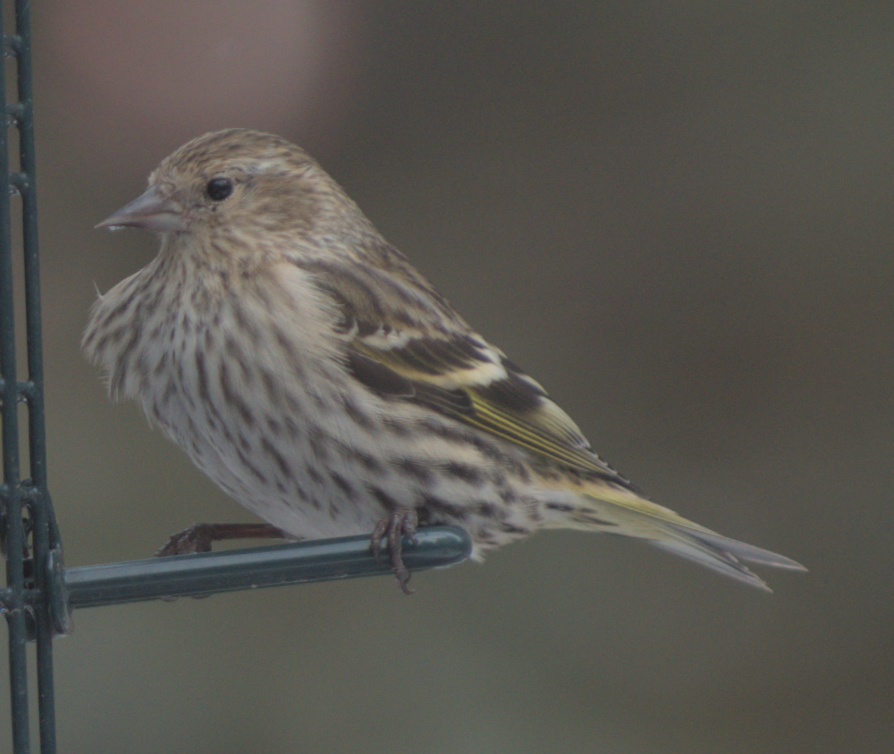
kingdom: Animalia
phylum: Chordata
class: Aves
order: Passeriformes
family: Fringillidae
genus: Spinus
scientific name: Spinus pinus
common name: Pine siskin
